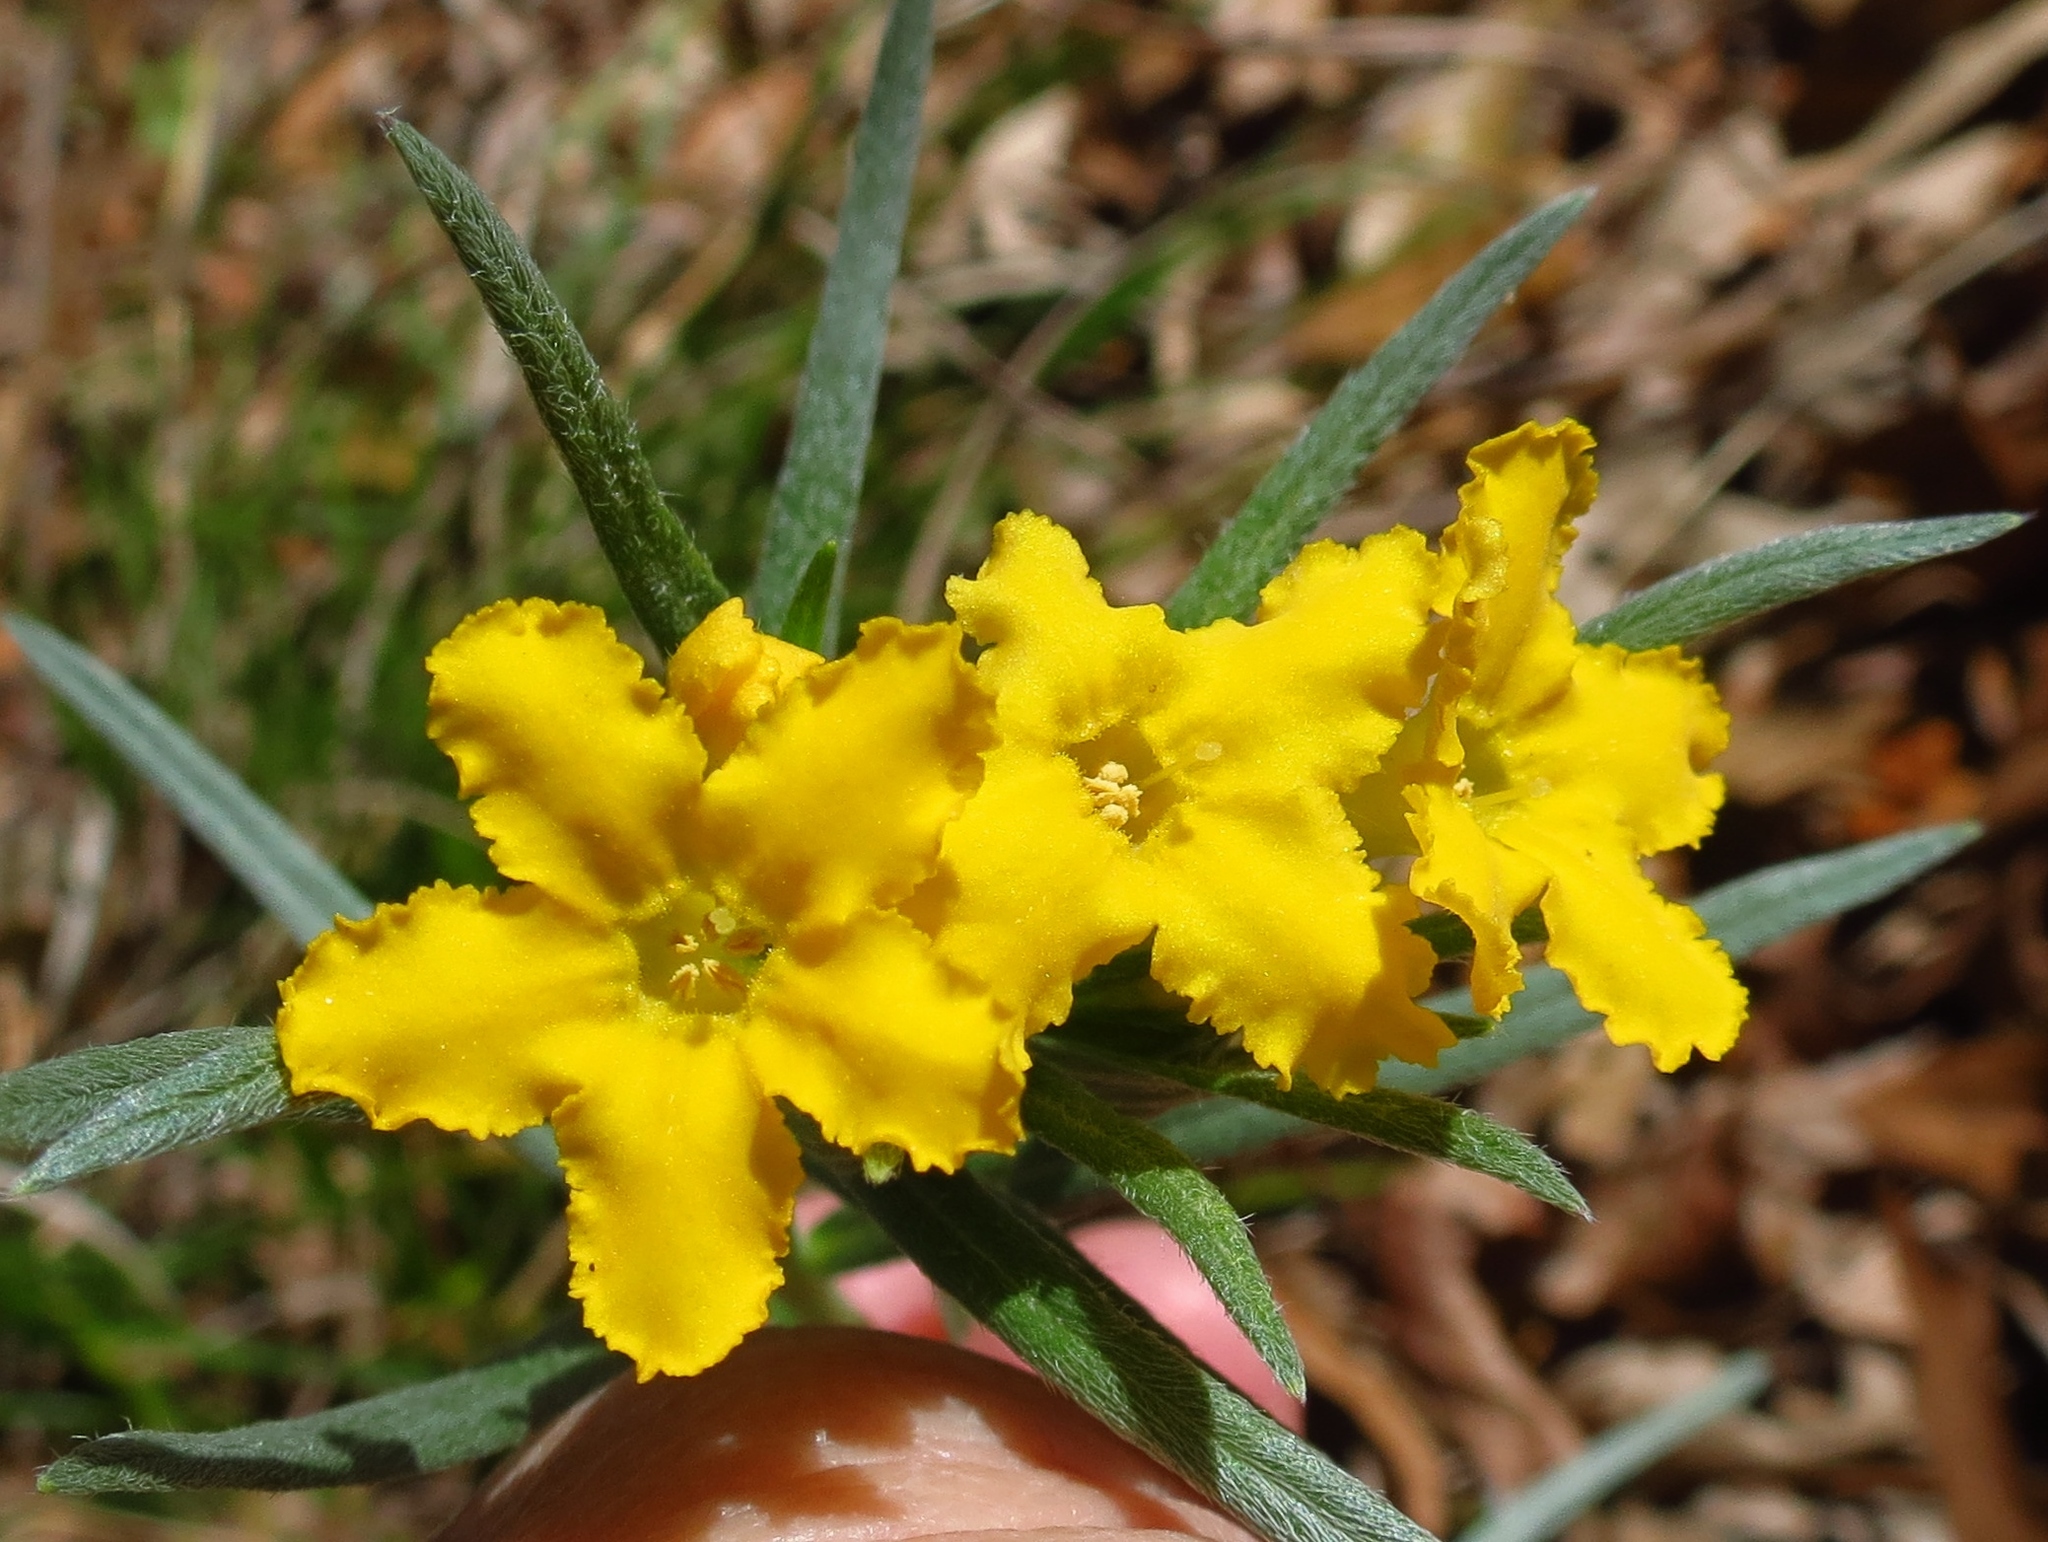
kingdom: Plantae
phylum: Tracheophyta
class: Magnoliopsida
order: Boraginales
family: Boraginaceae
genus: Lithospermum
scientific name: Lithospermum incisum
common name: Fringed gromwell
